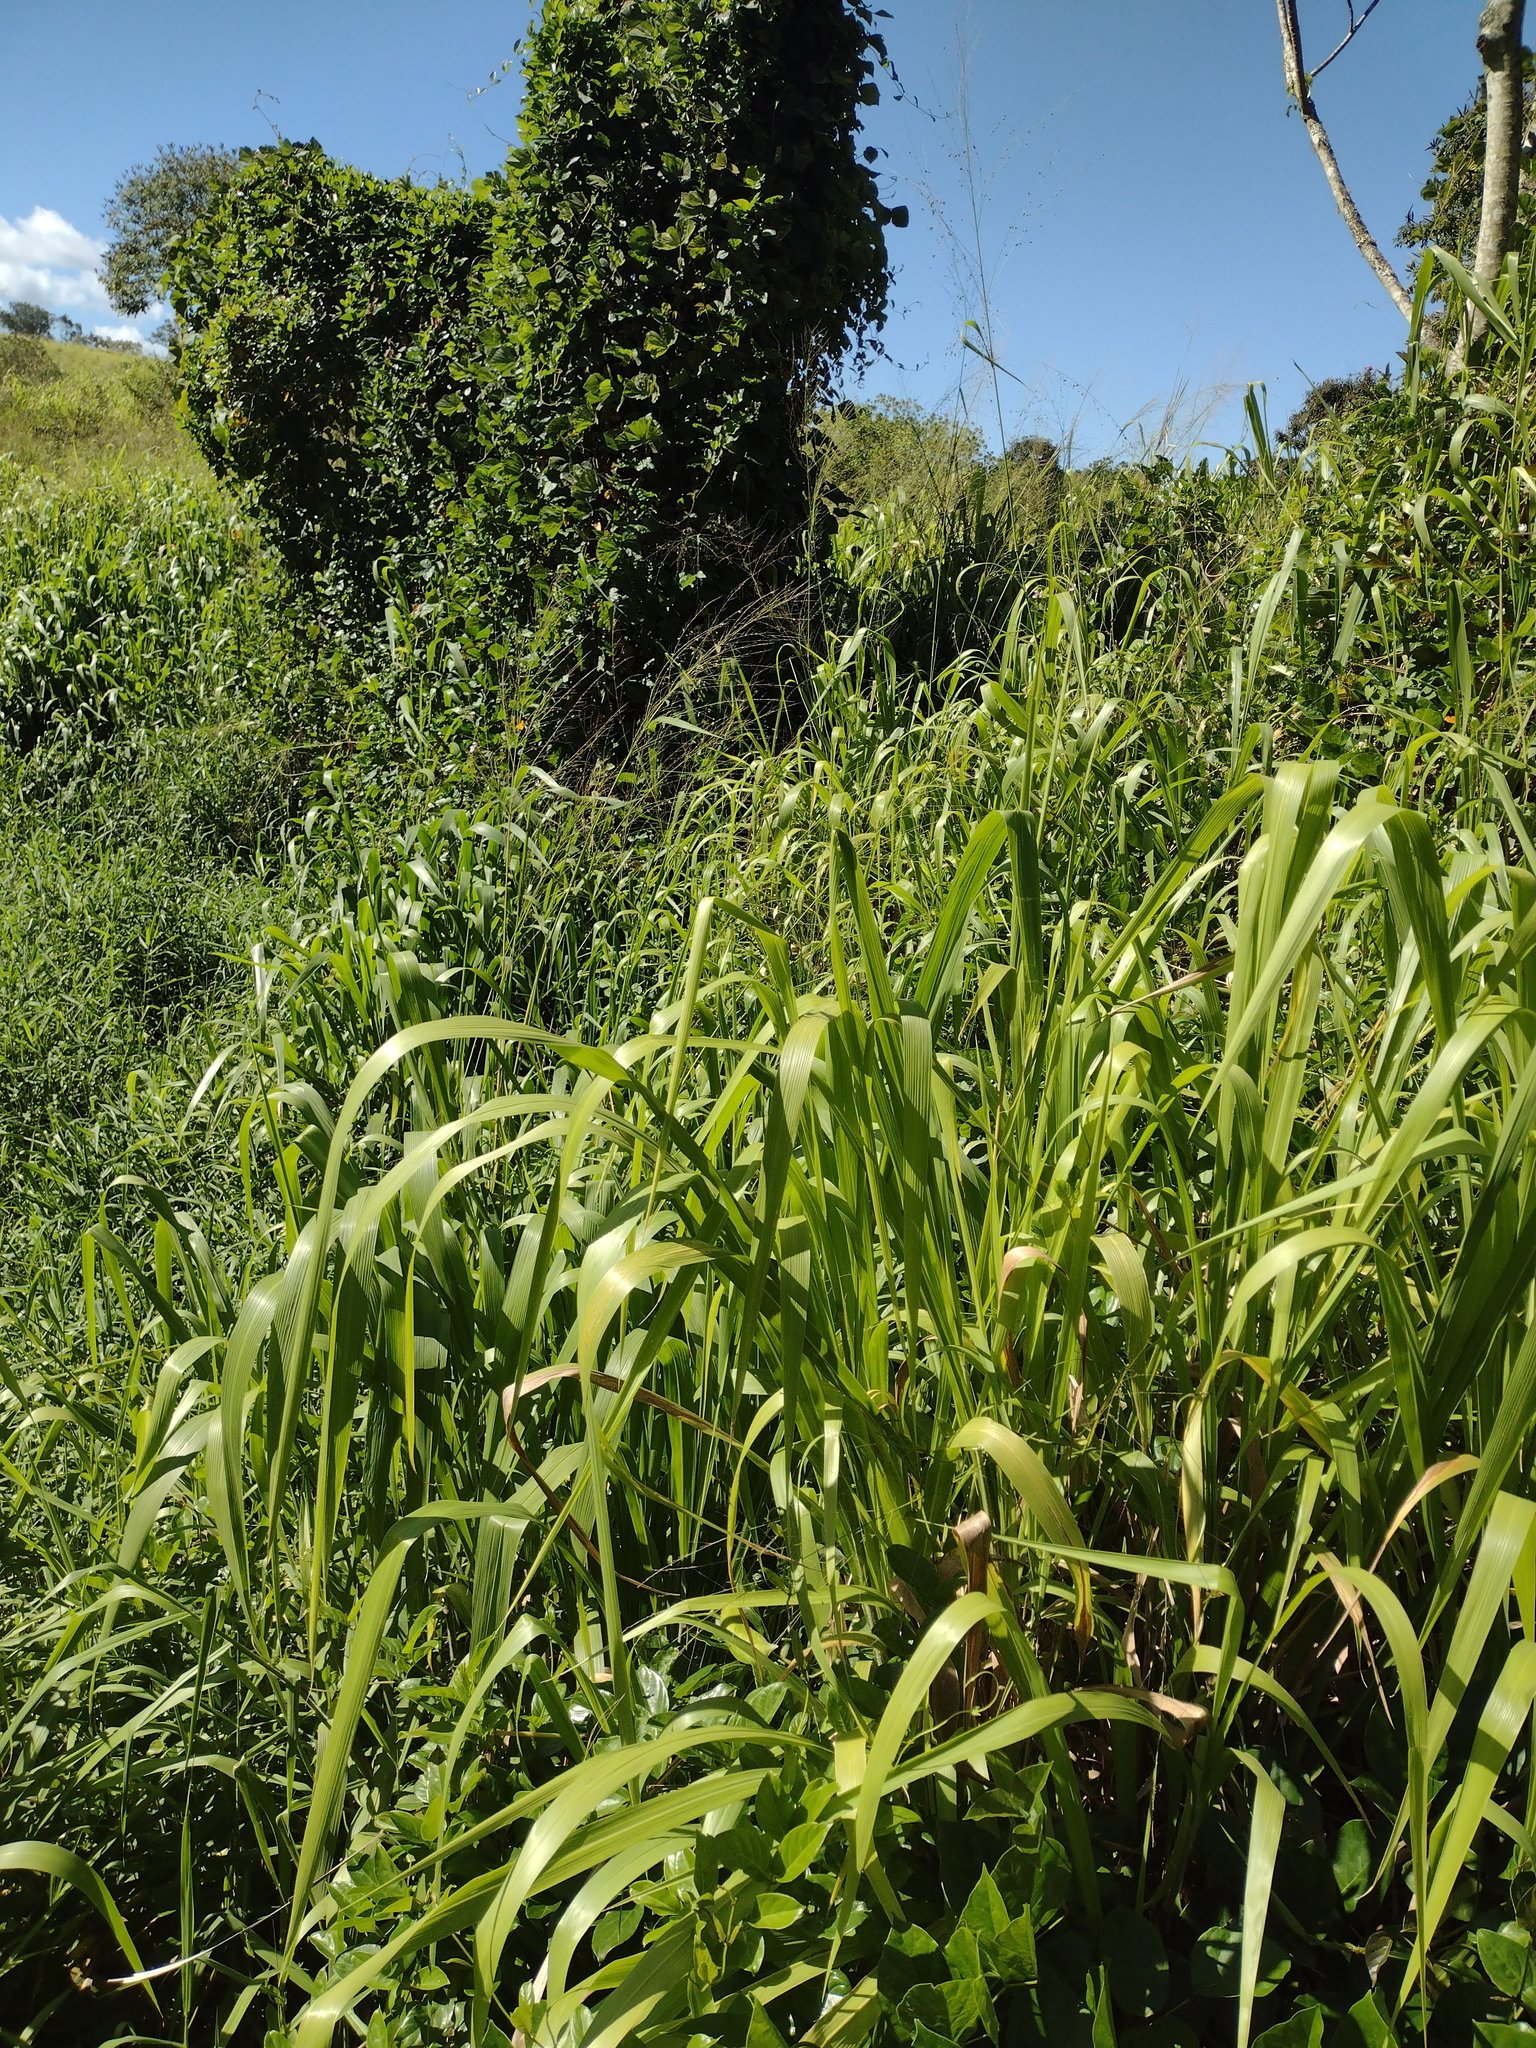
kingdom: Plantae
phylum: Tracheophyta
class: Liliopsida
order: Poales
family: Poaceae
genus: Megathyrsus
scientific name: Megathyrsus maximus
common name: Guineagrass
